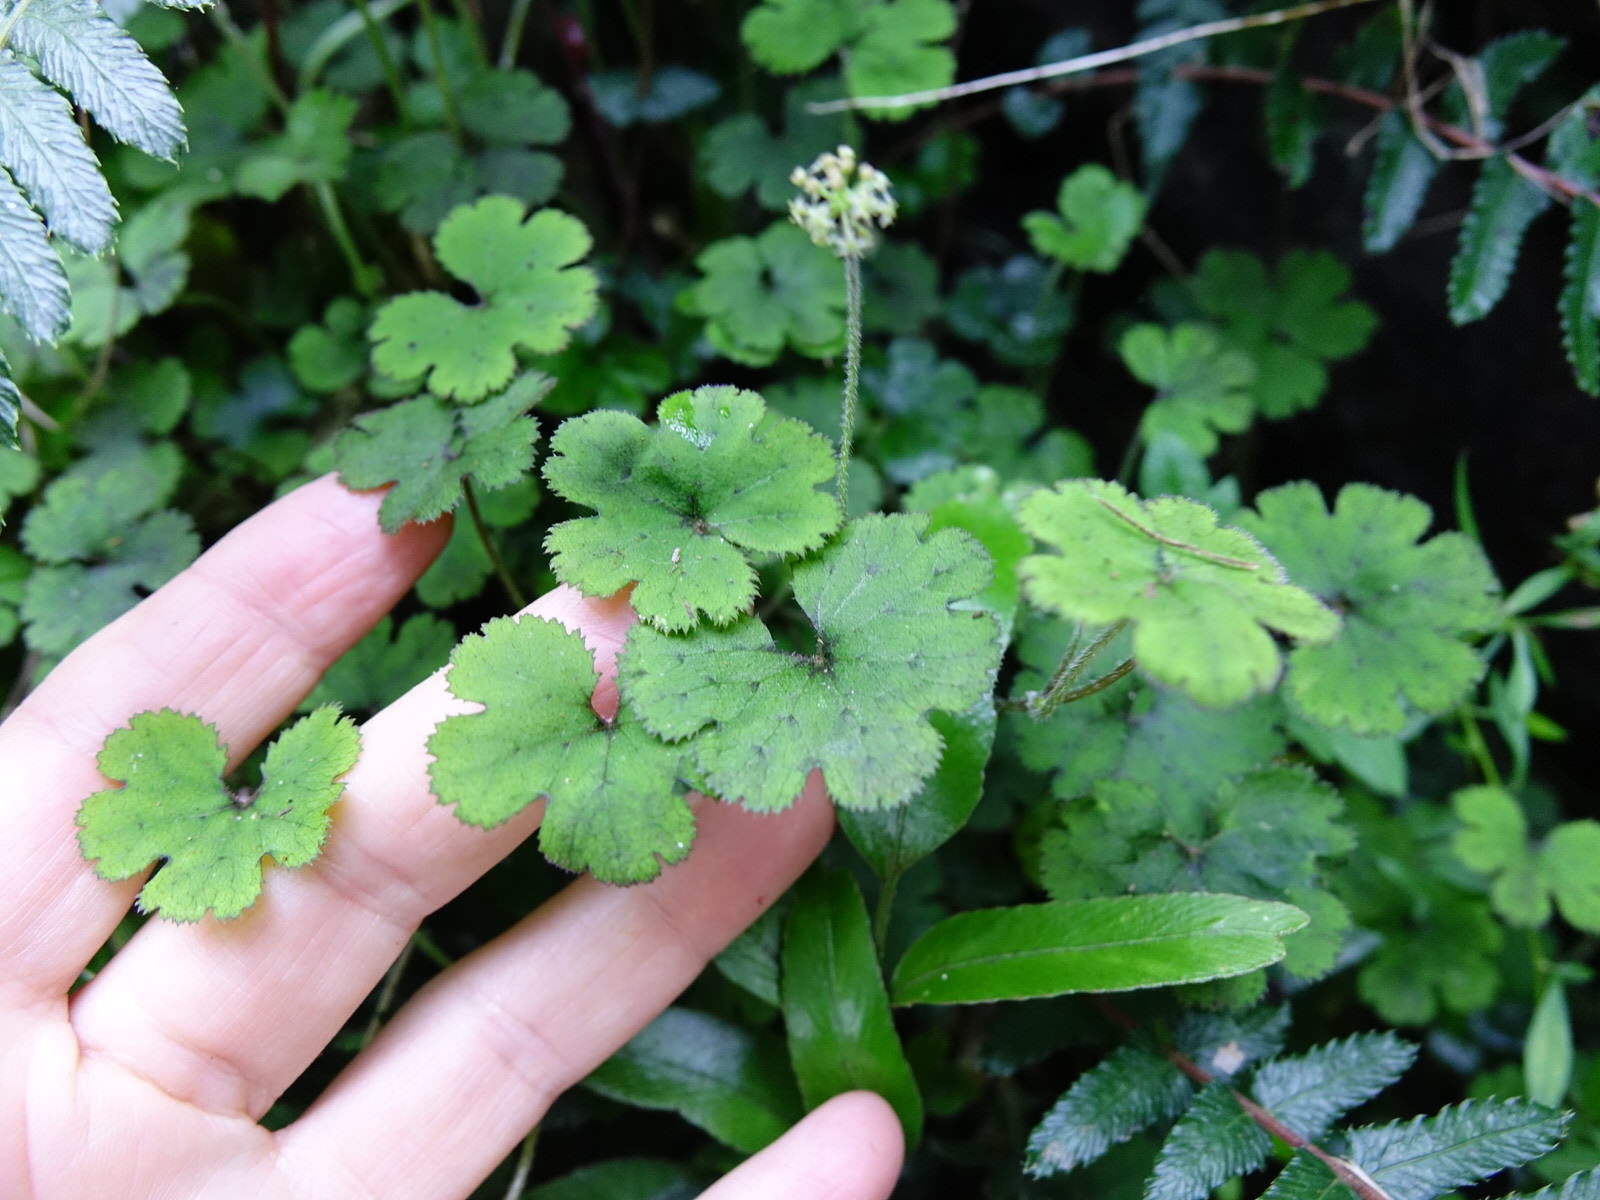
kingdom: Plantae
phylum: Tracheophyta
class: Magnoliopsida
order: Apiales
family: Araliaceae
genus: Hydrocotyle
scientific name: Hydrocotyle elongata
